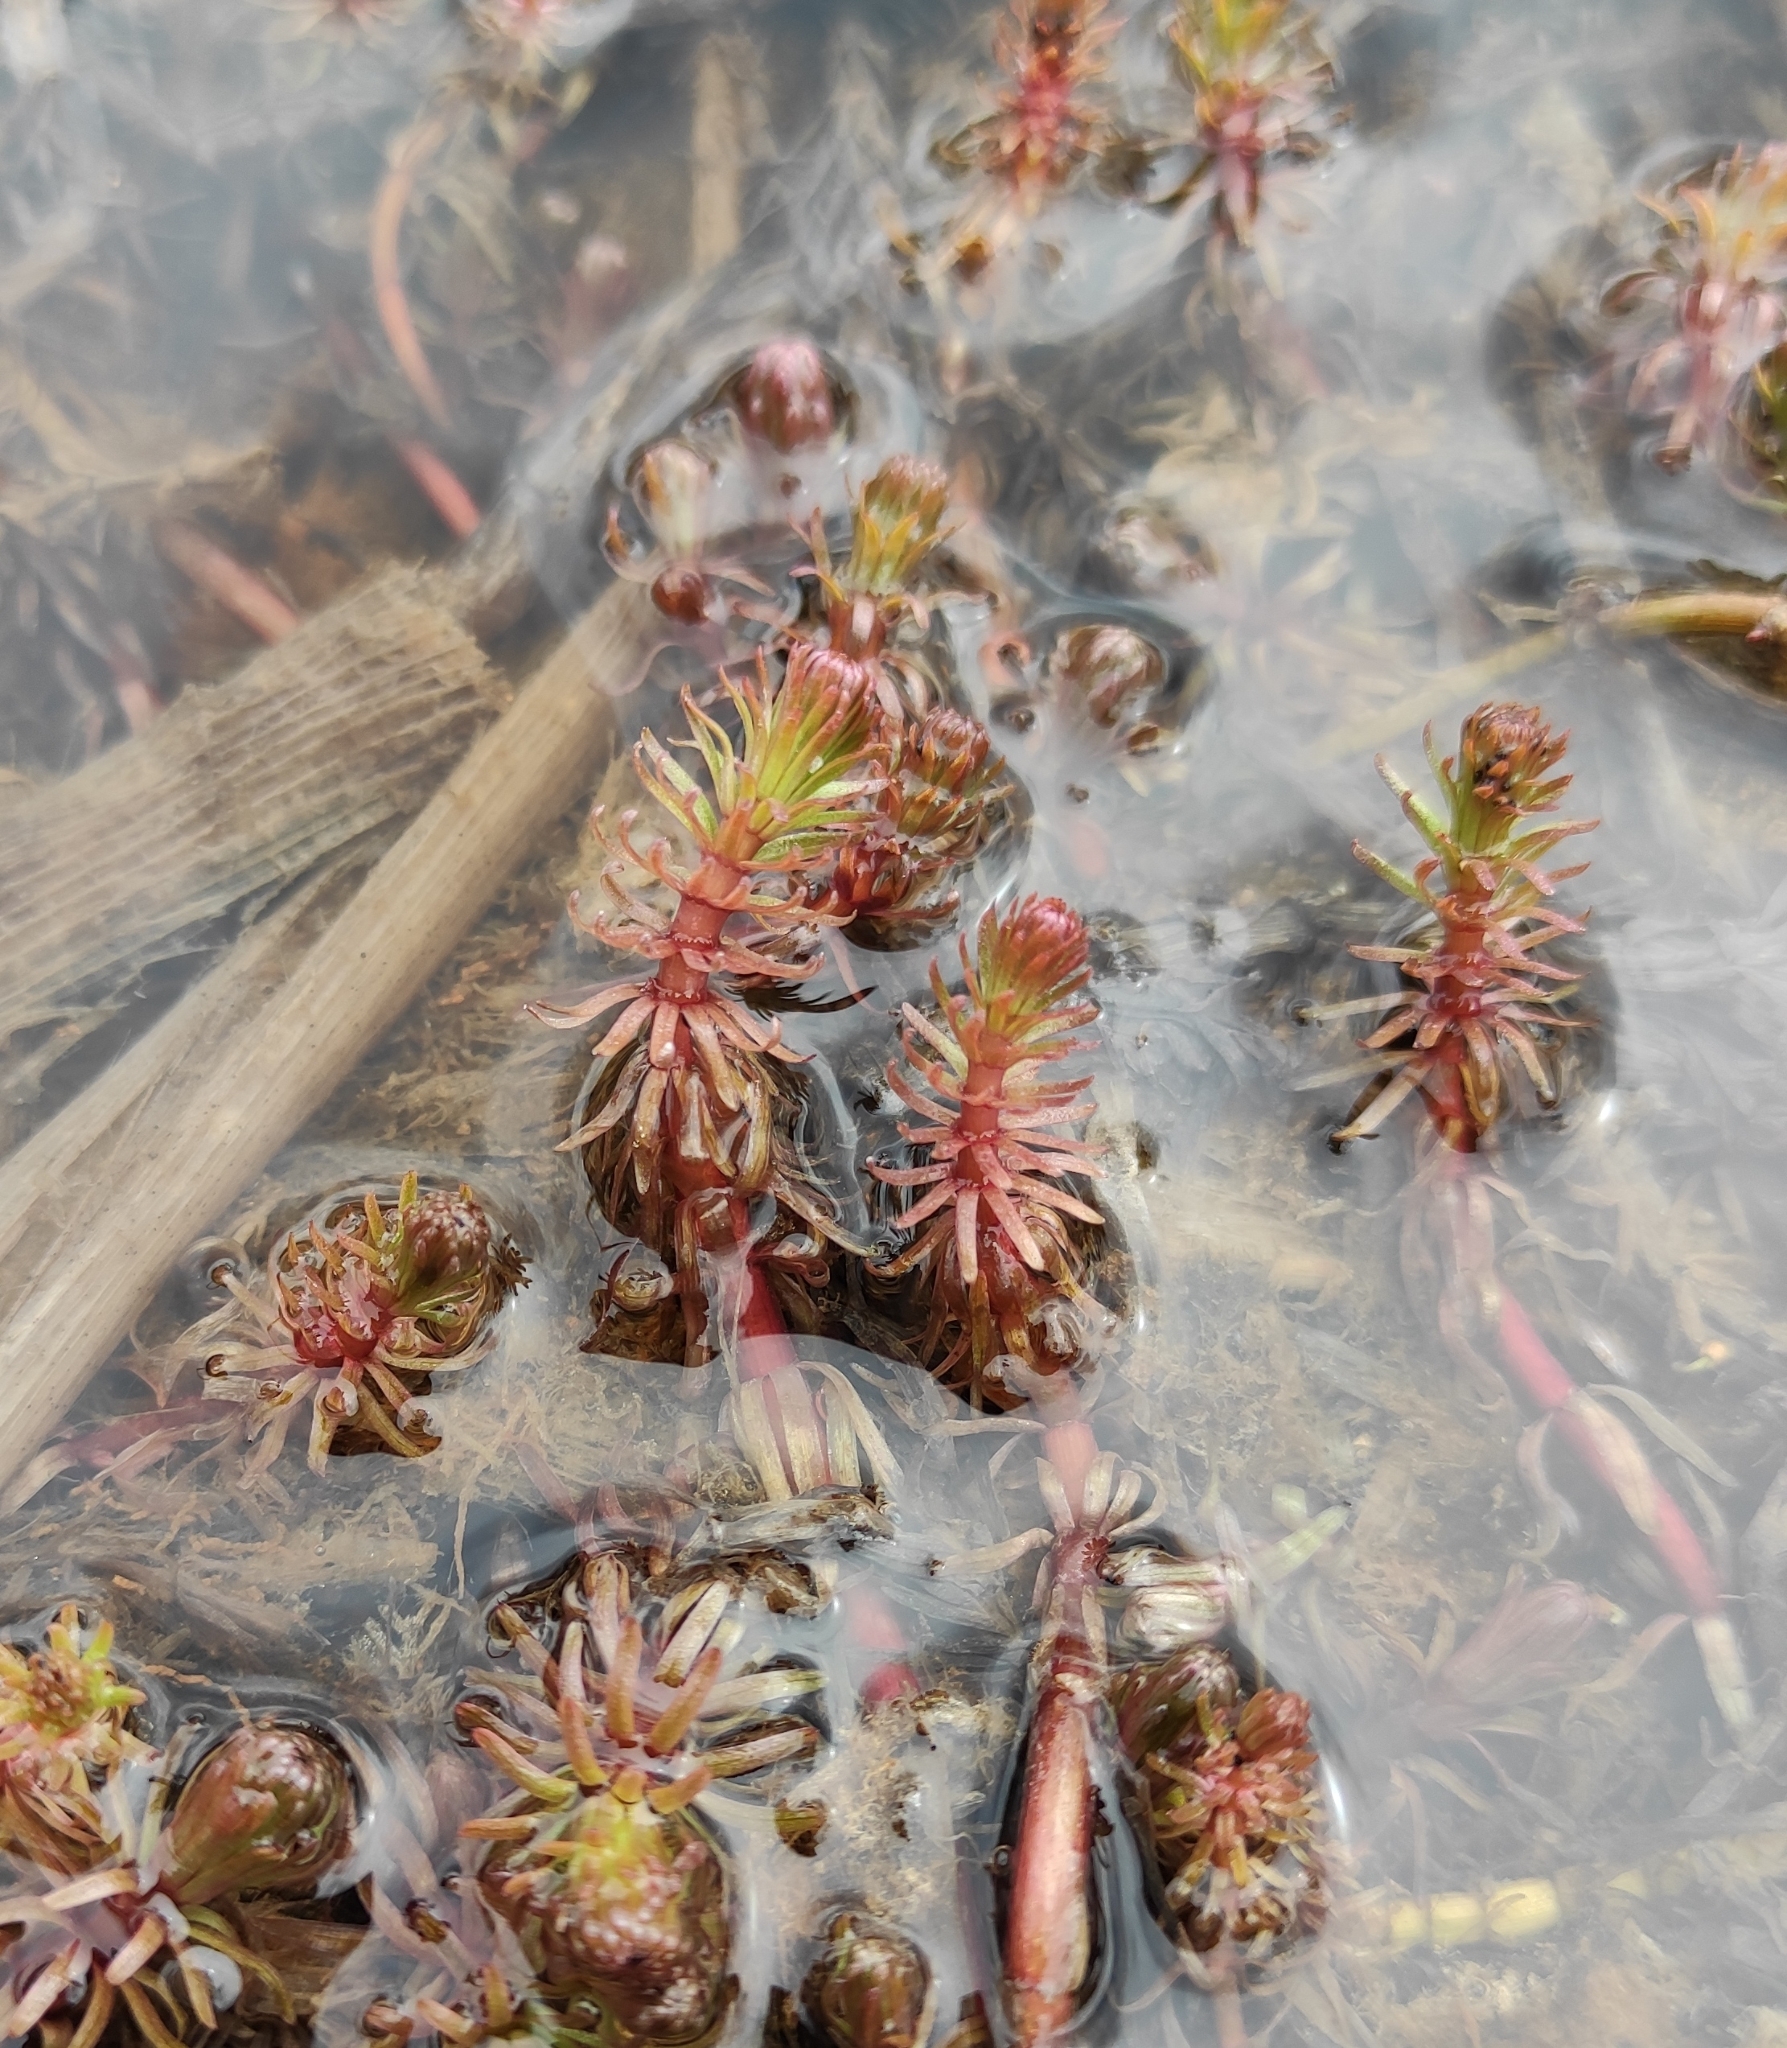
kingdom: Plantae
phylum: Tracheophyta
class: Magnoliopsida
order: Lamiales
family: Plantaginaceae
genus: Hippuris
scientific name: Hippuris vulgaris
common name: Mare's-tail
